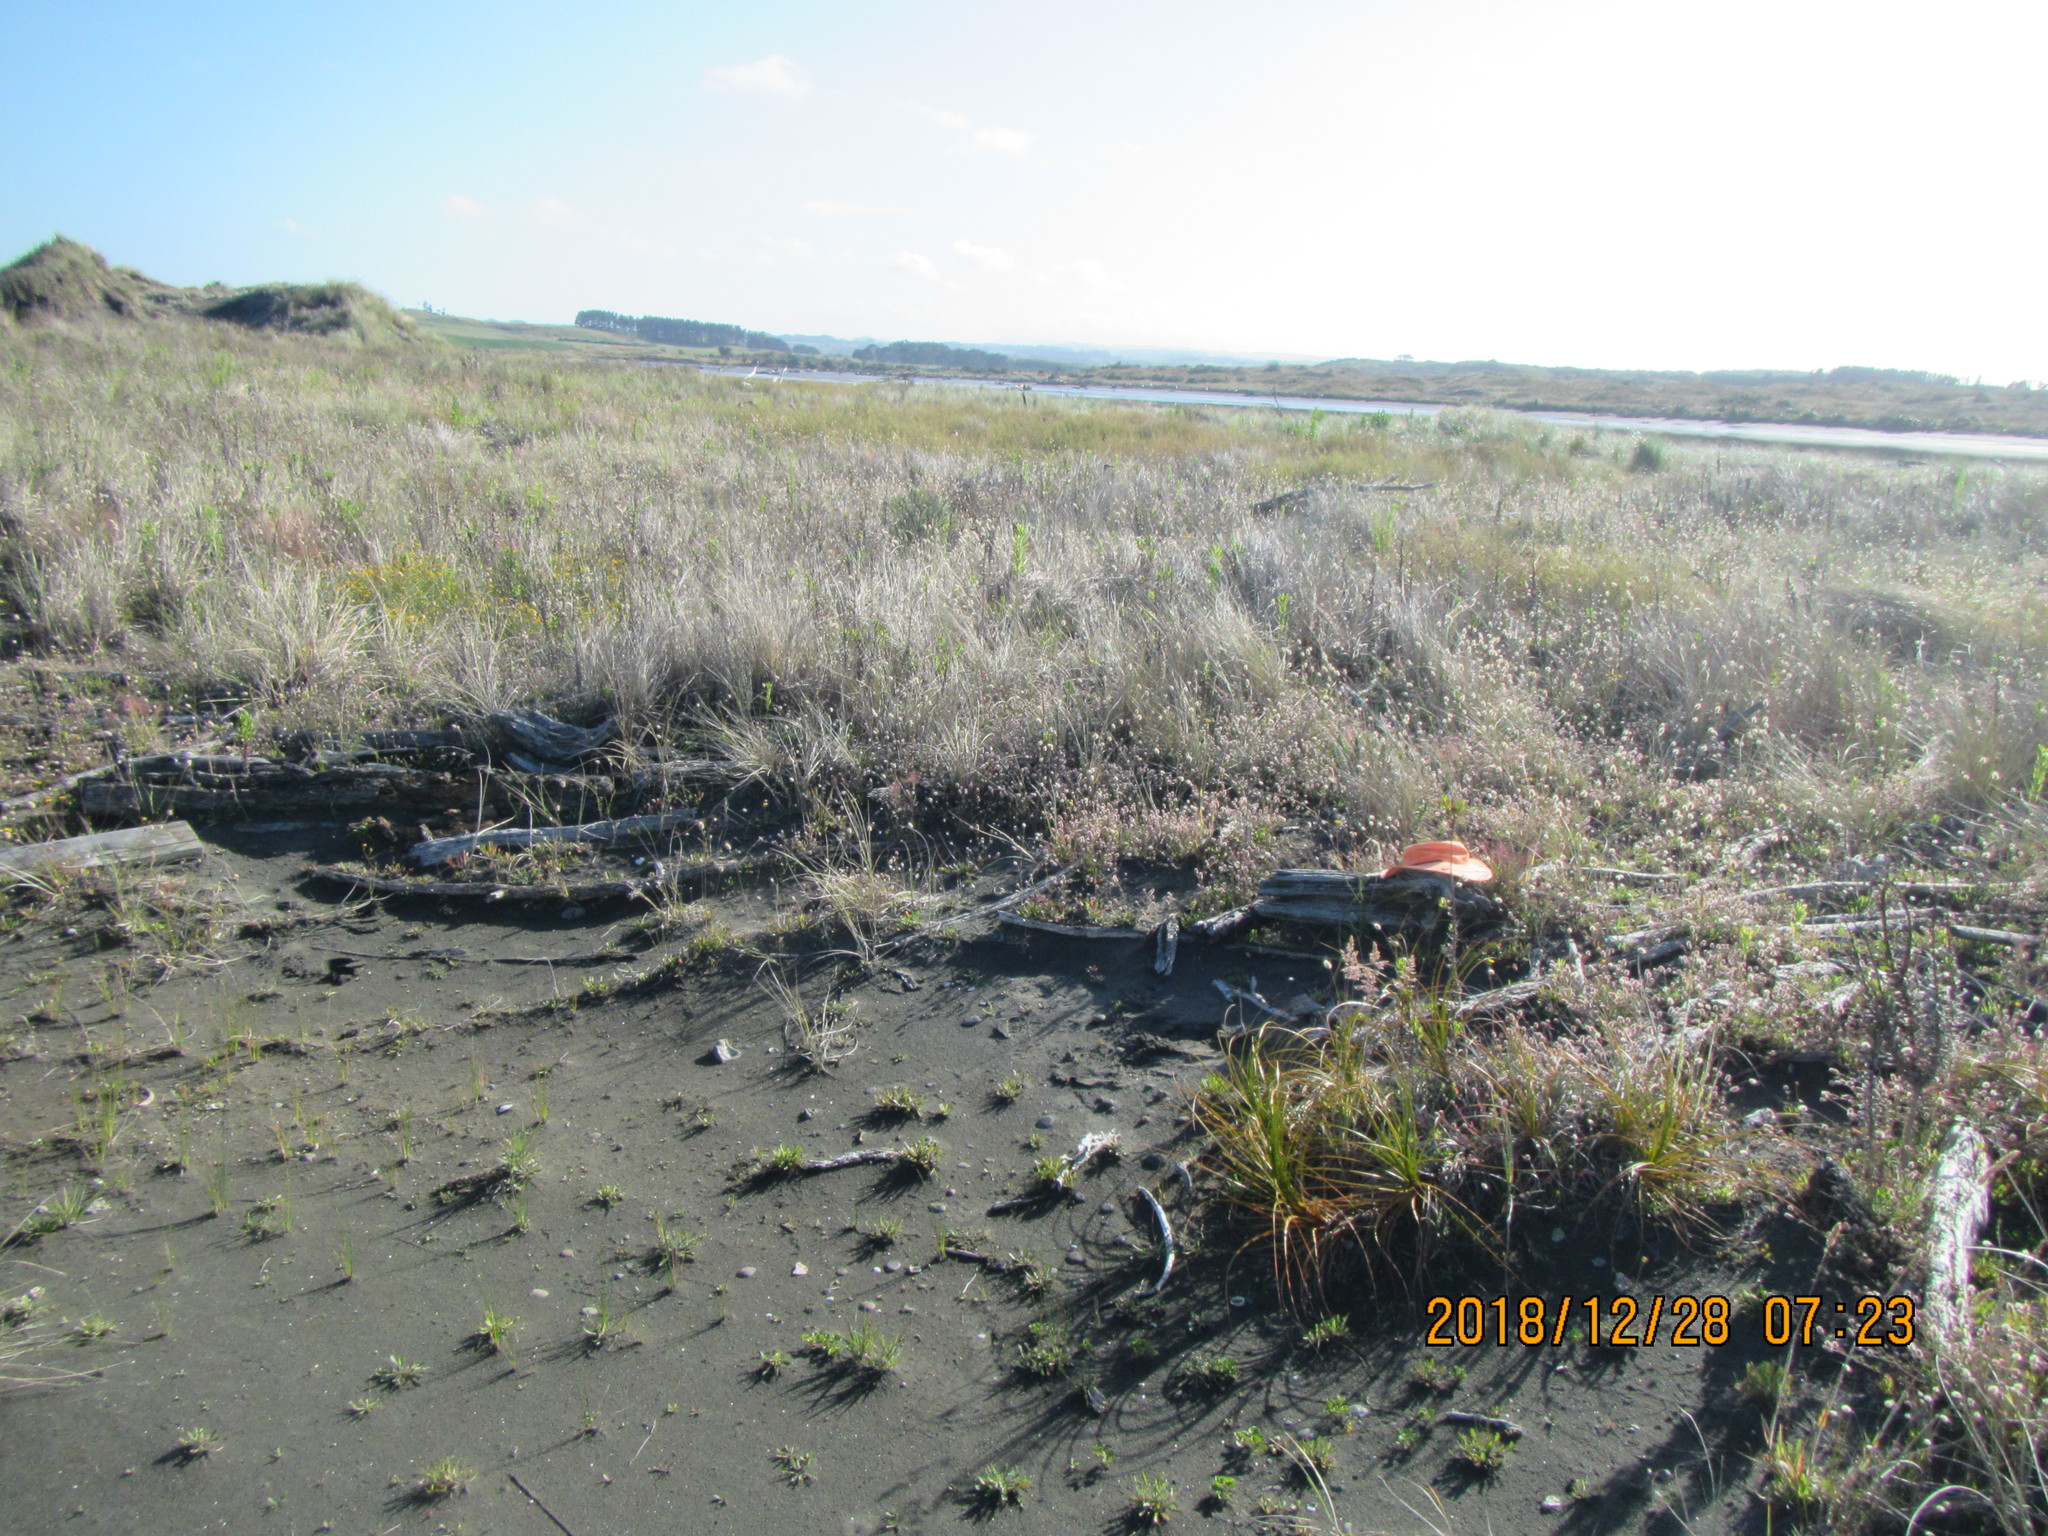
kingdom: Animalia
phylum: Arthropoda
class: Arachnida
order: Araneae
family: Theridiidae
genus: Steatoda
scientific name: Steatoda capensis
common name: Cobweb weaver
